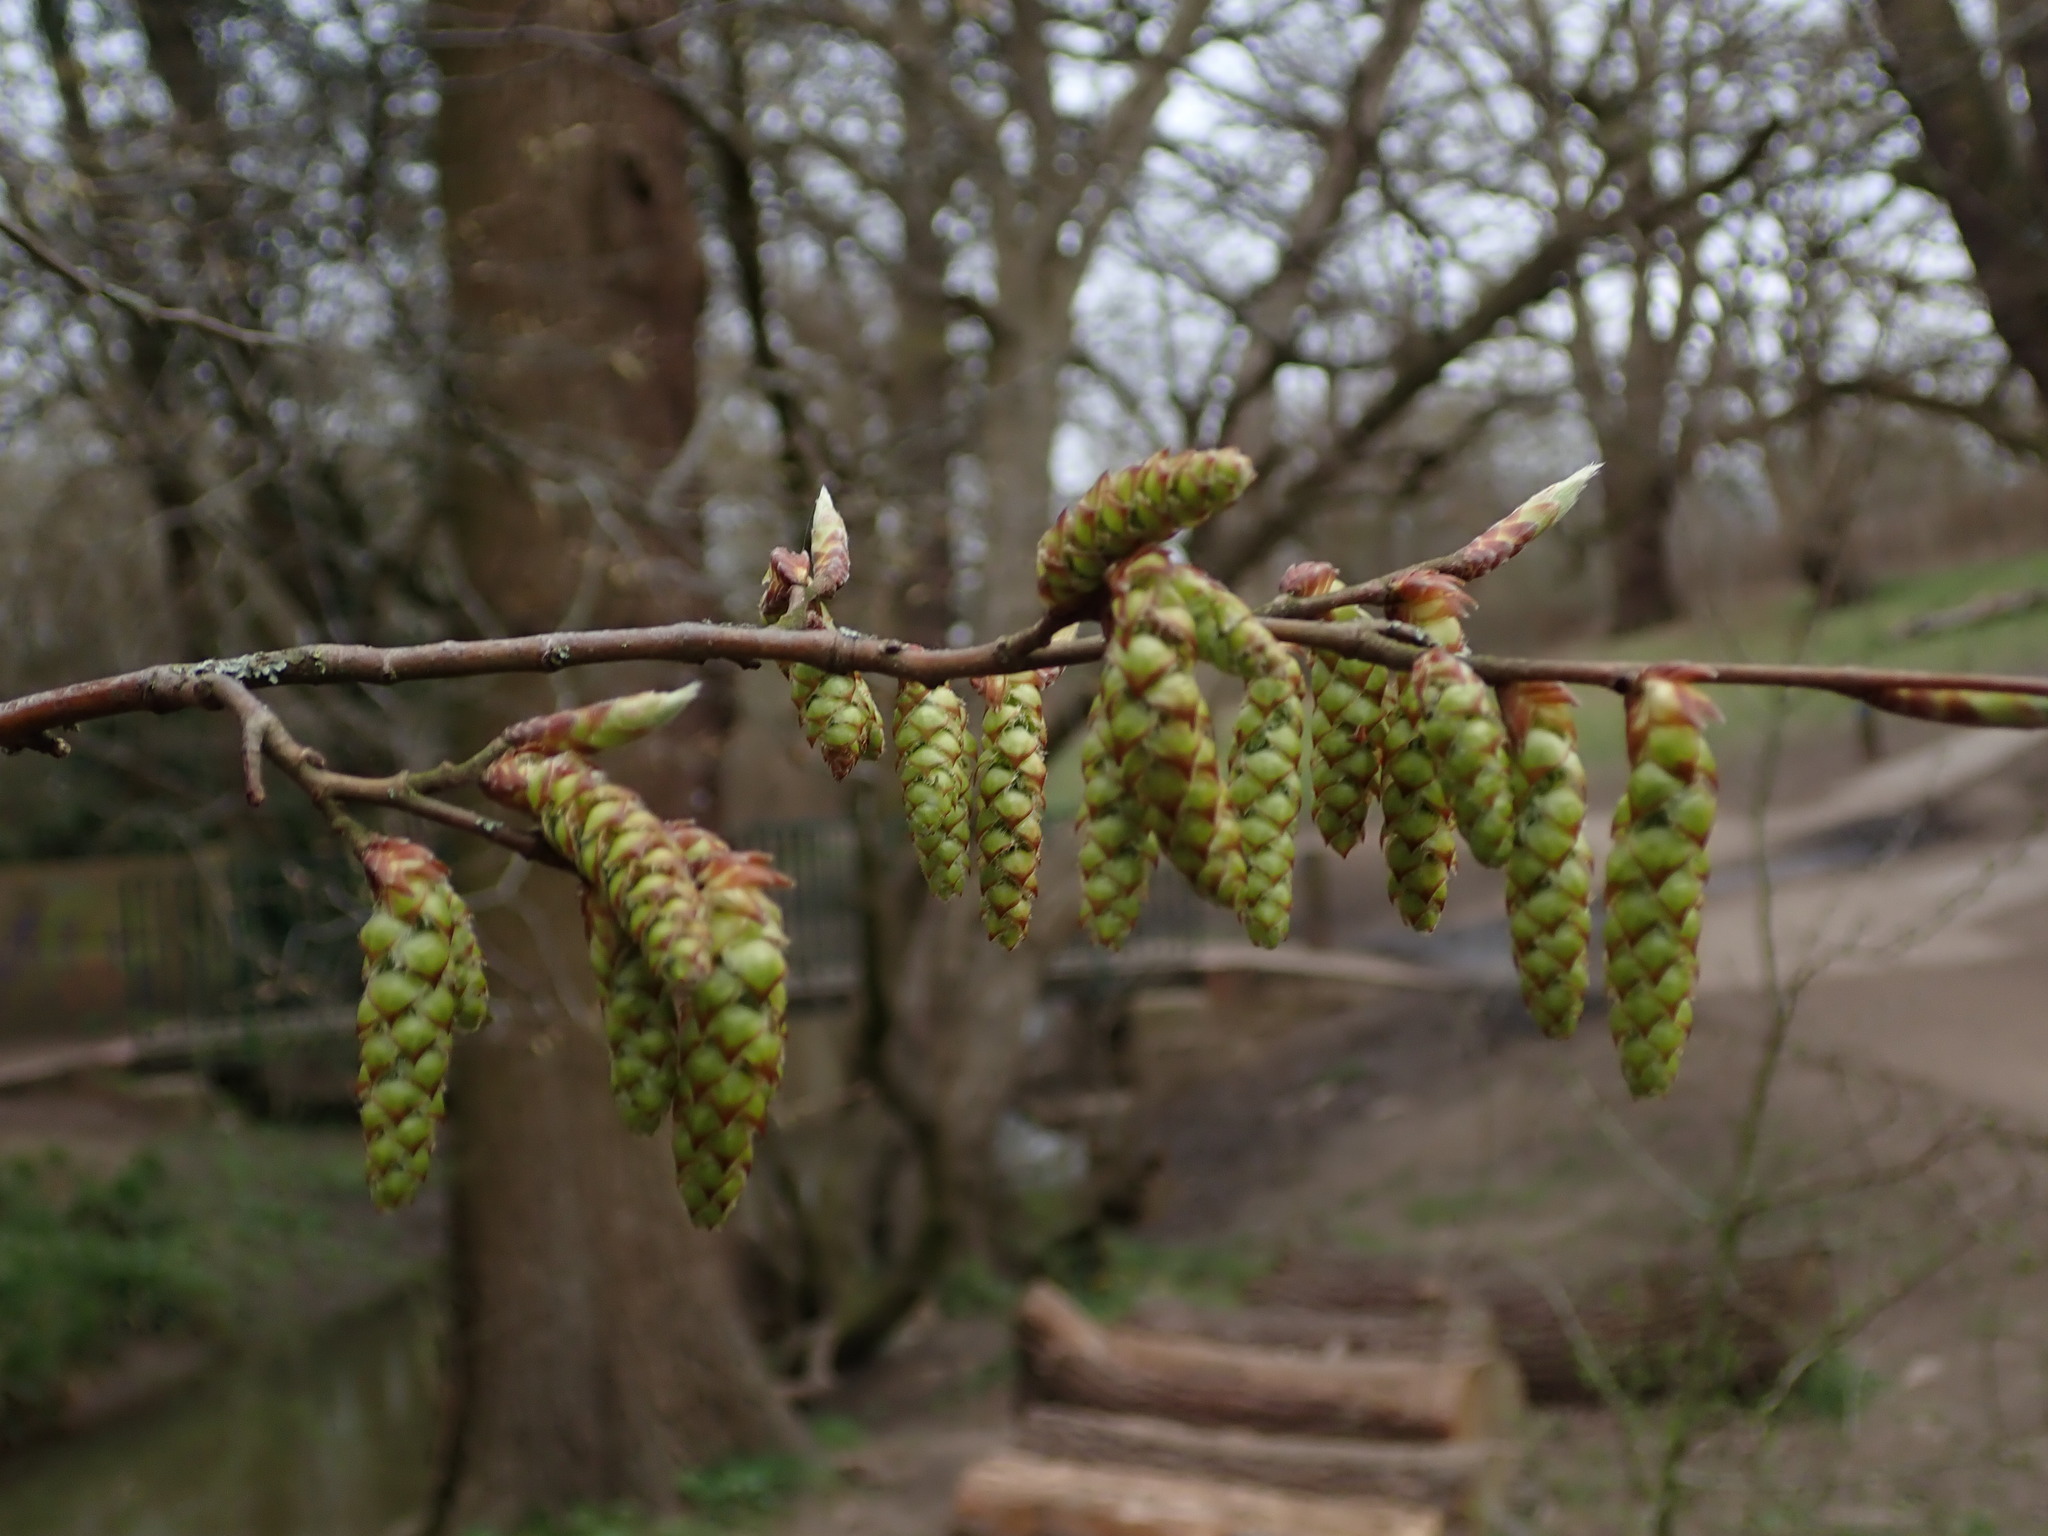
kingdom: Plantae
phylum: Tracheophyta
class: Magnoliopsida
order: Fagales
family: Betulaceae
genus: Carpinus
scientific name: Carpinus betulus
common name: Hornbeam
